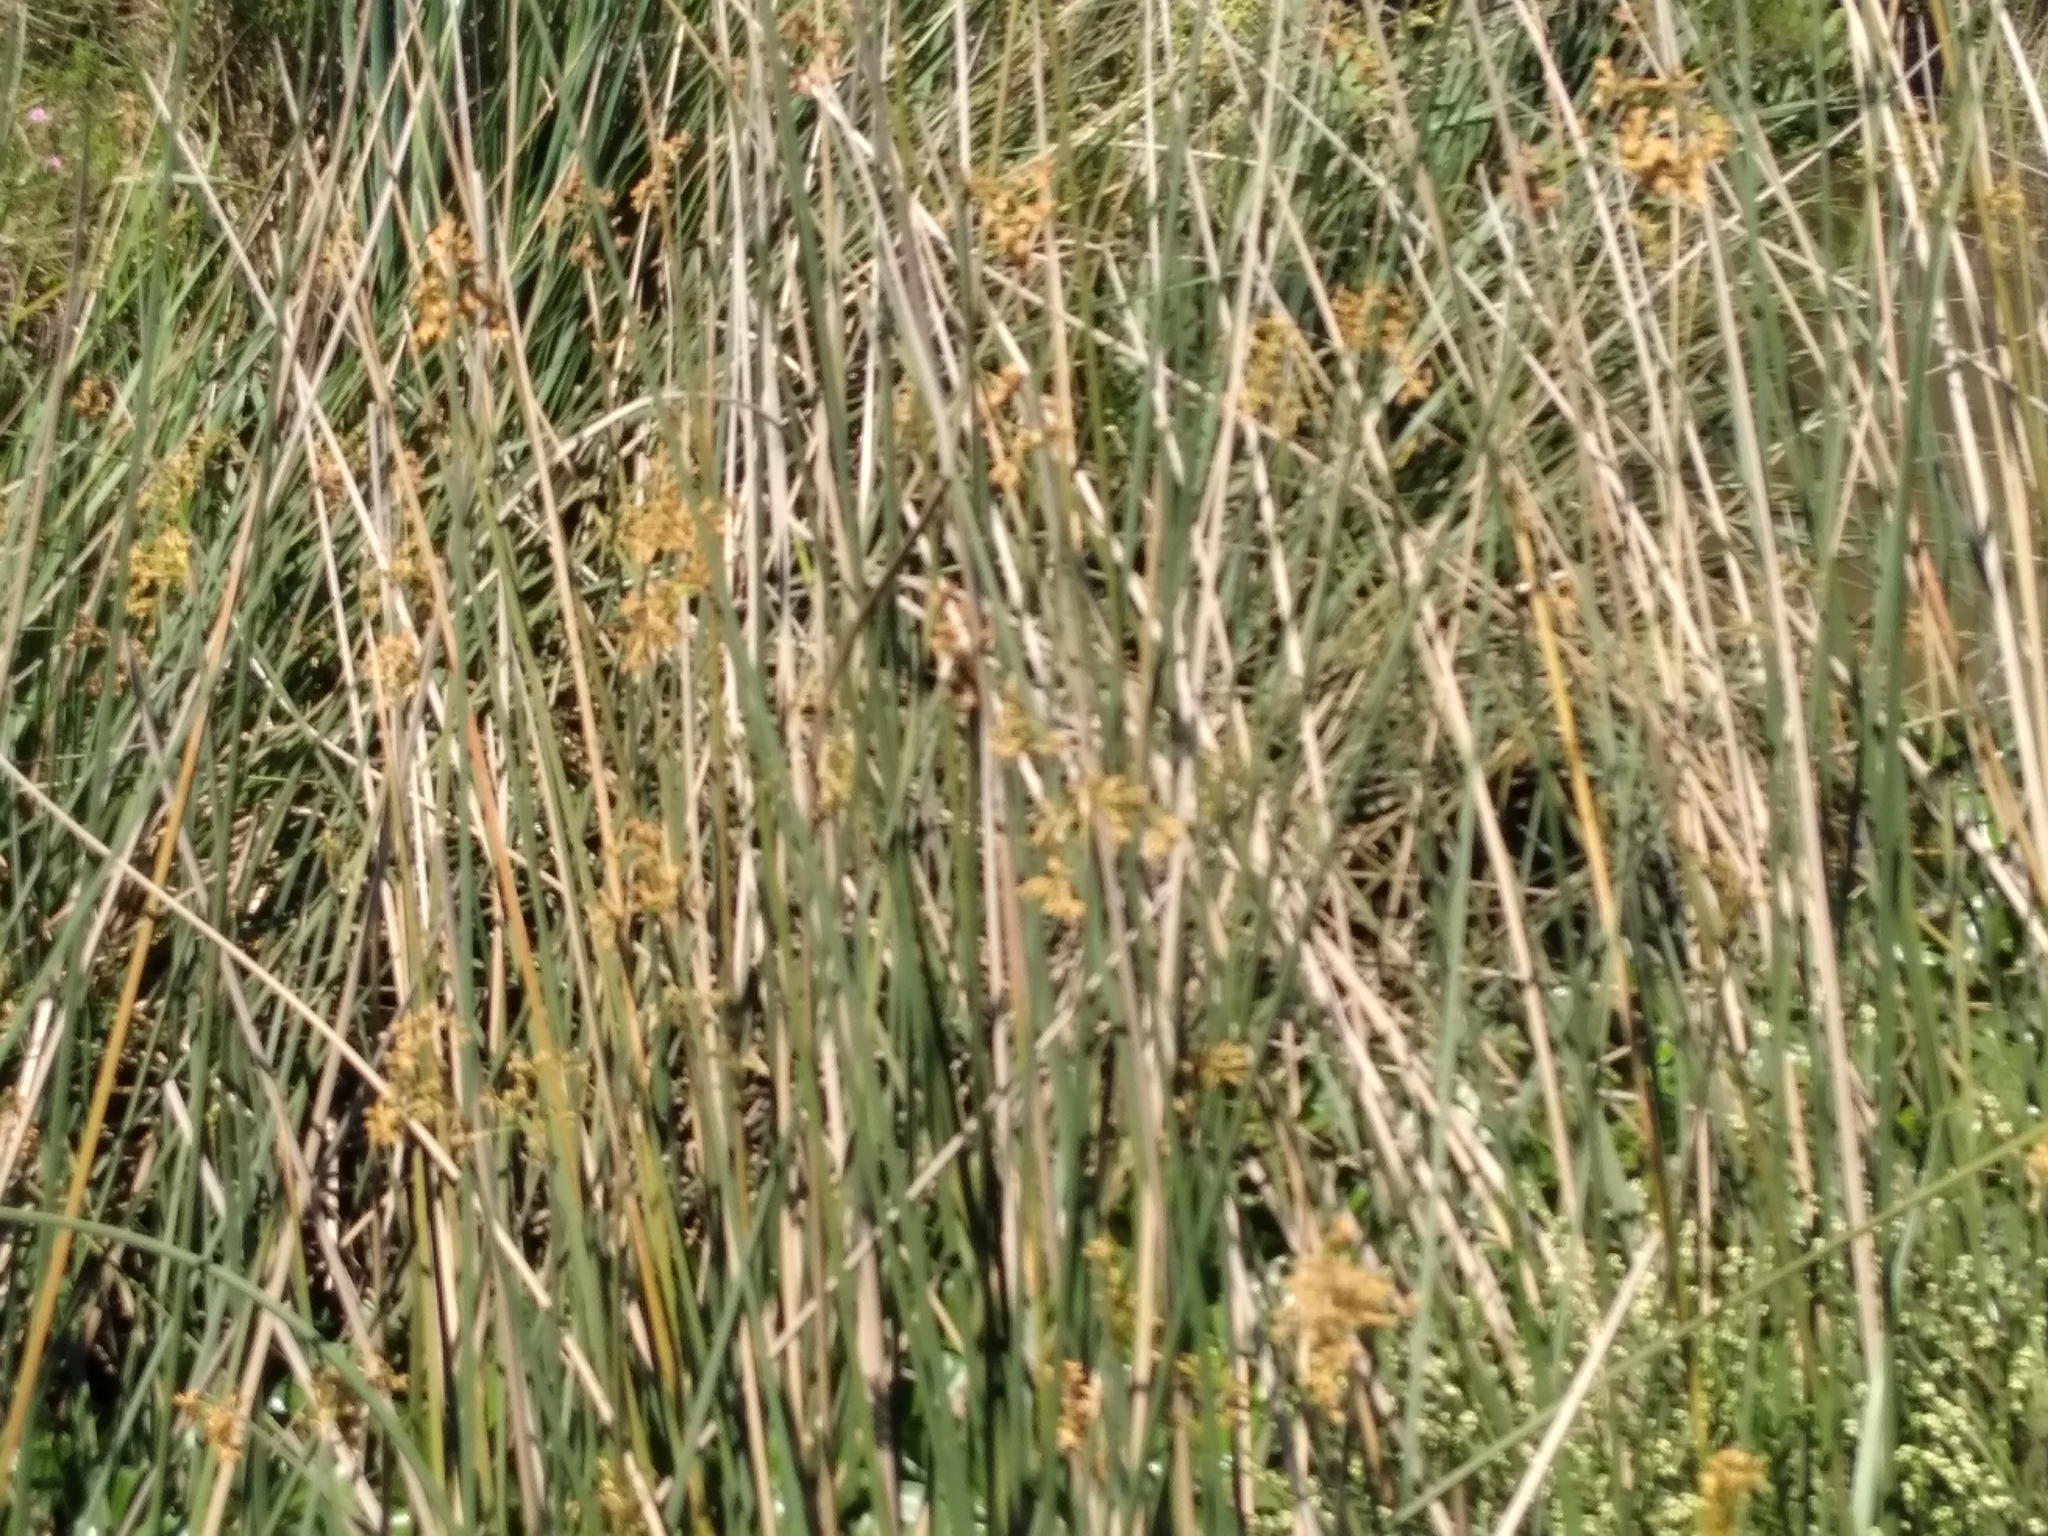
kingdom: Plantae
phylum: Tracheophyta
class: Liliopsida
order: Poales
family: Cyperaceae
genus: Schoenoplectus
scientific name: Schoenoplectus californicus
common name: California bulrush
